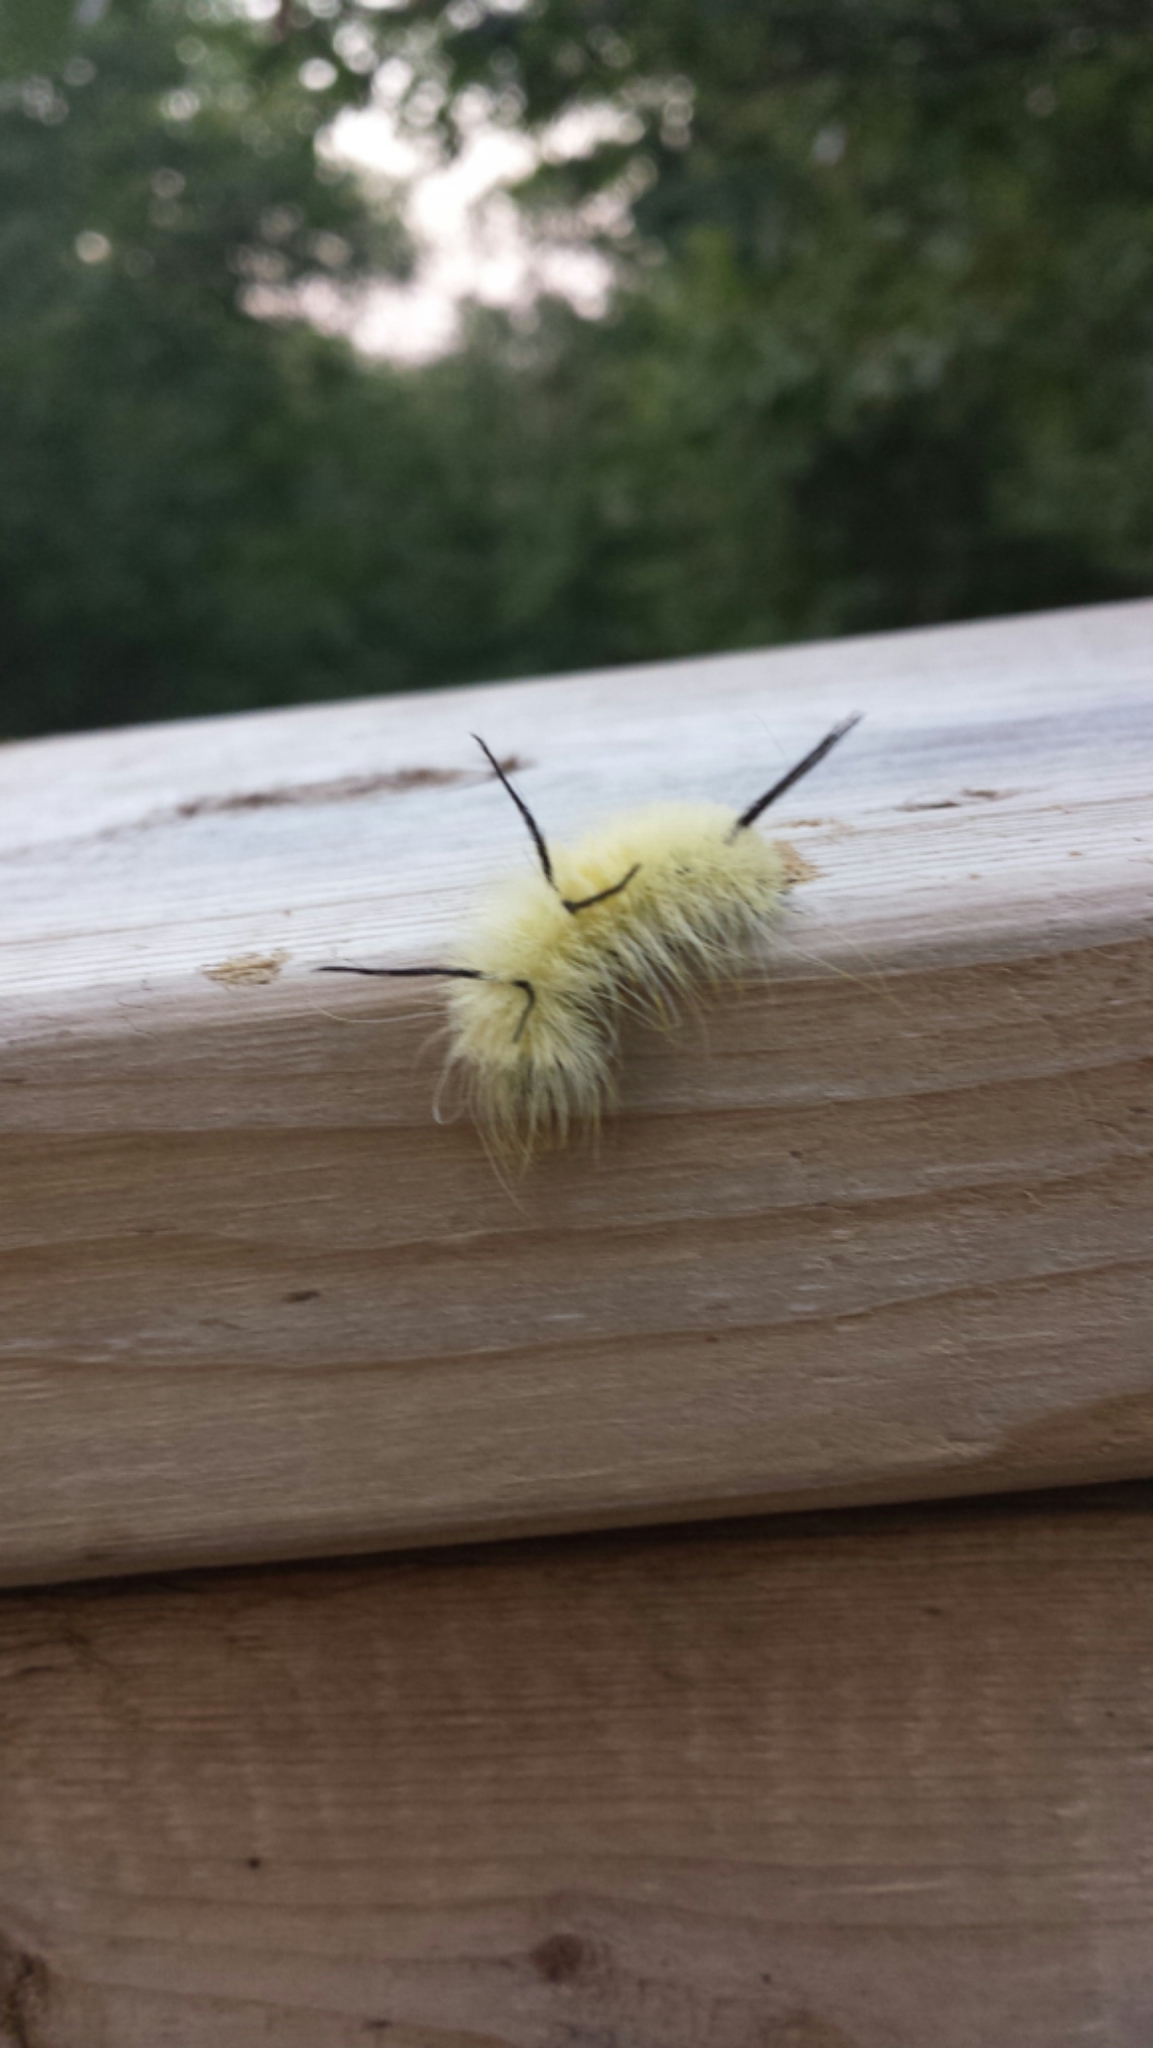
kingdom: Animalia
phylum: Arthropoda
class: Insecta
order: Lepidoptera
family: Noctuidae
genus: Acronicta
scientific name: Acronicta americana
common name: American dagger
